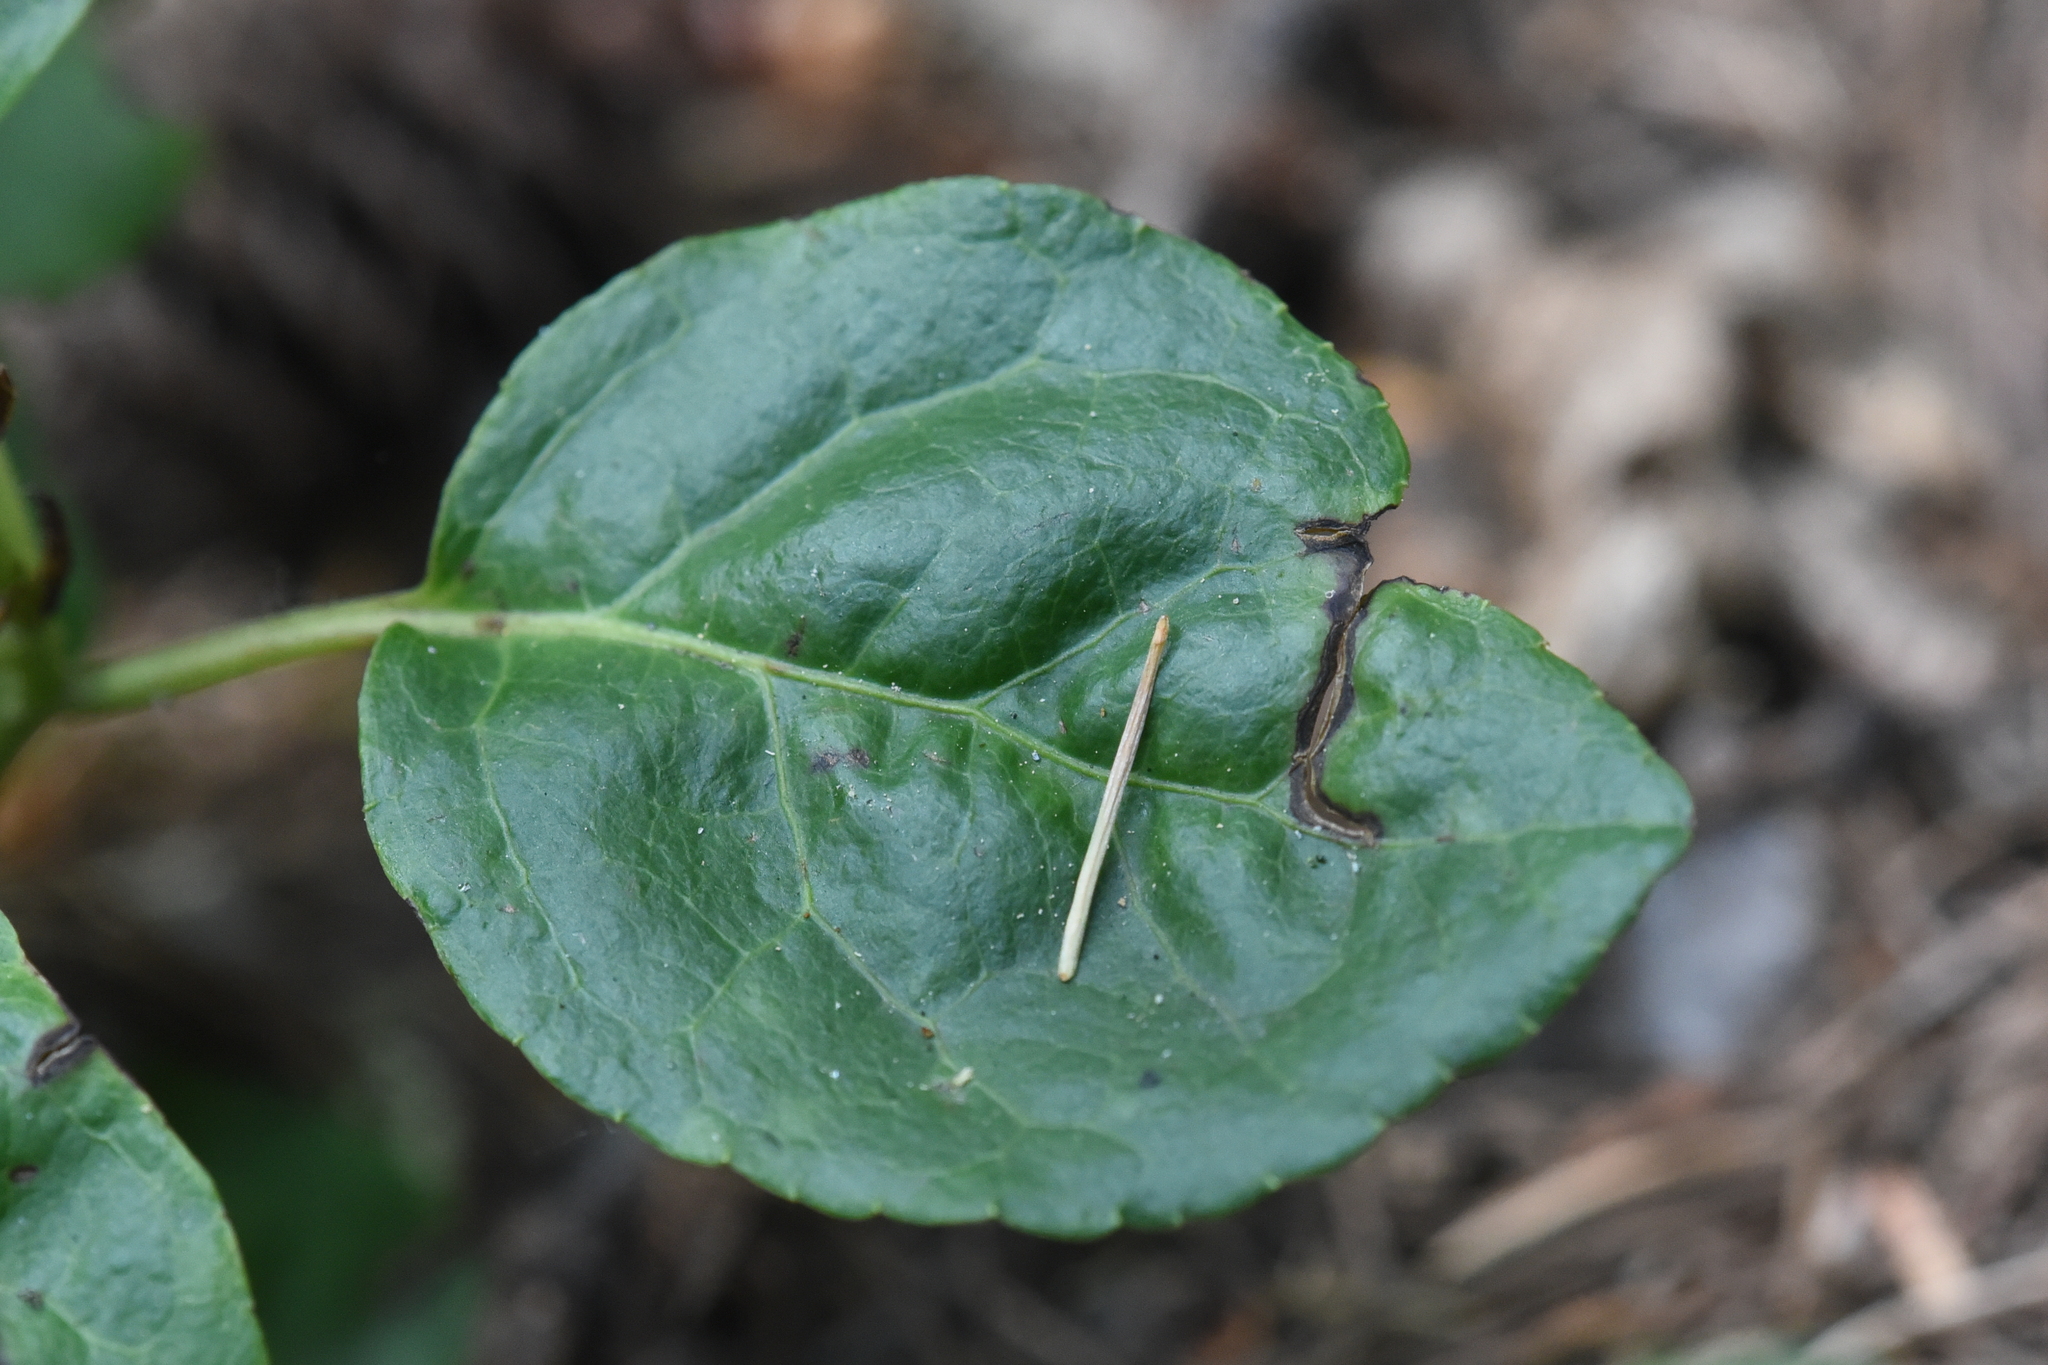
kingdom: Plantae
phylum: Tracheophyta
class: Magnoliopsida
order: Ericales
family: Ericaceae
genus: Orthilia
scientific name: Orthilia secunda
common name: One-sided orthilia
